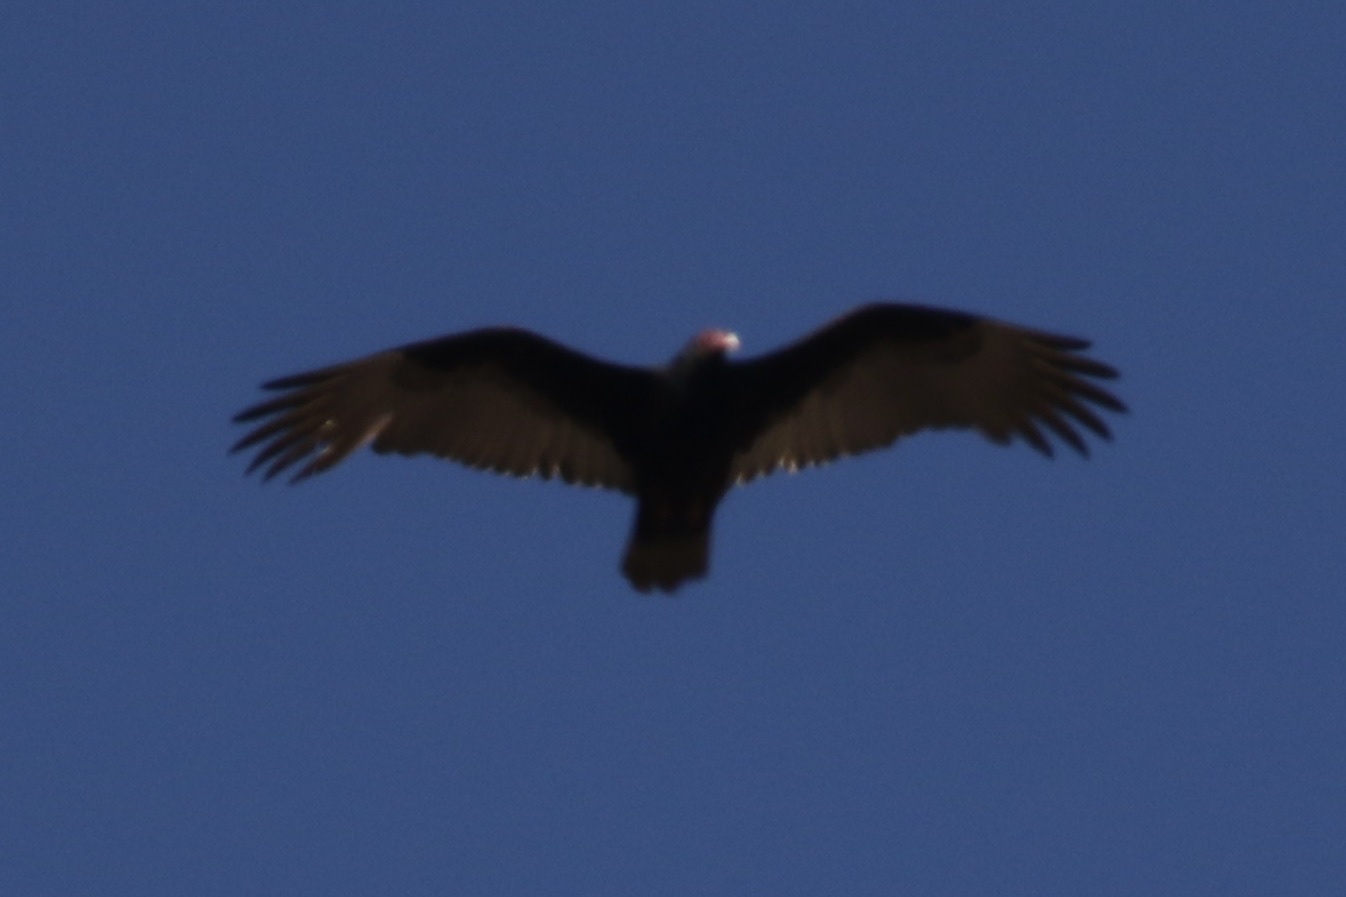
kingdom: Animalia
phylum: Chordata
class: Aves
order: Accipitriformes
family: Cathartidae
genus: Cathartes
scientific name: Cathartes aura
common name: Turkey vulture
